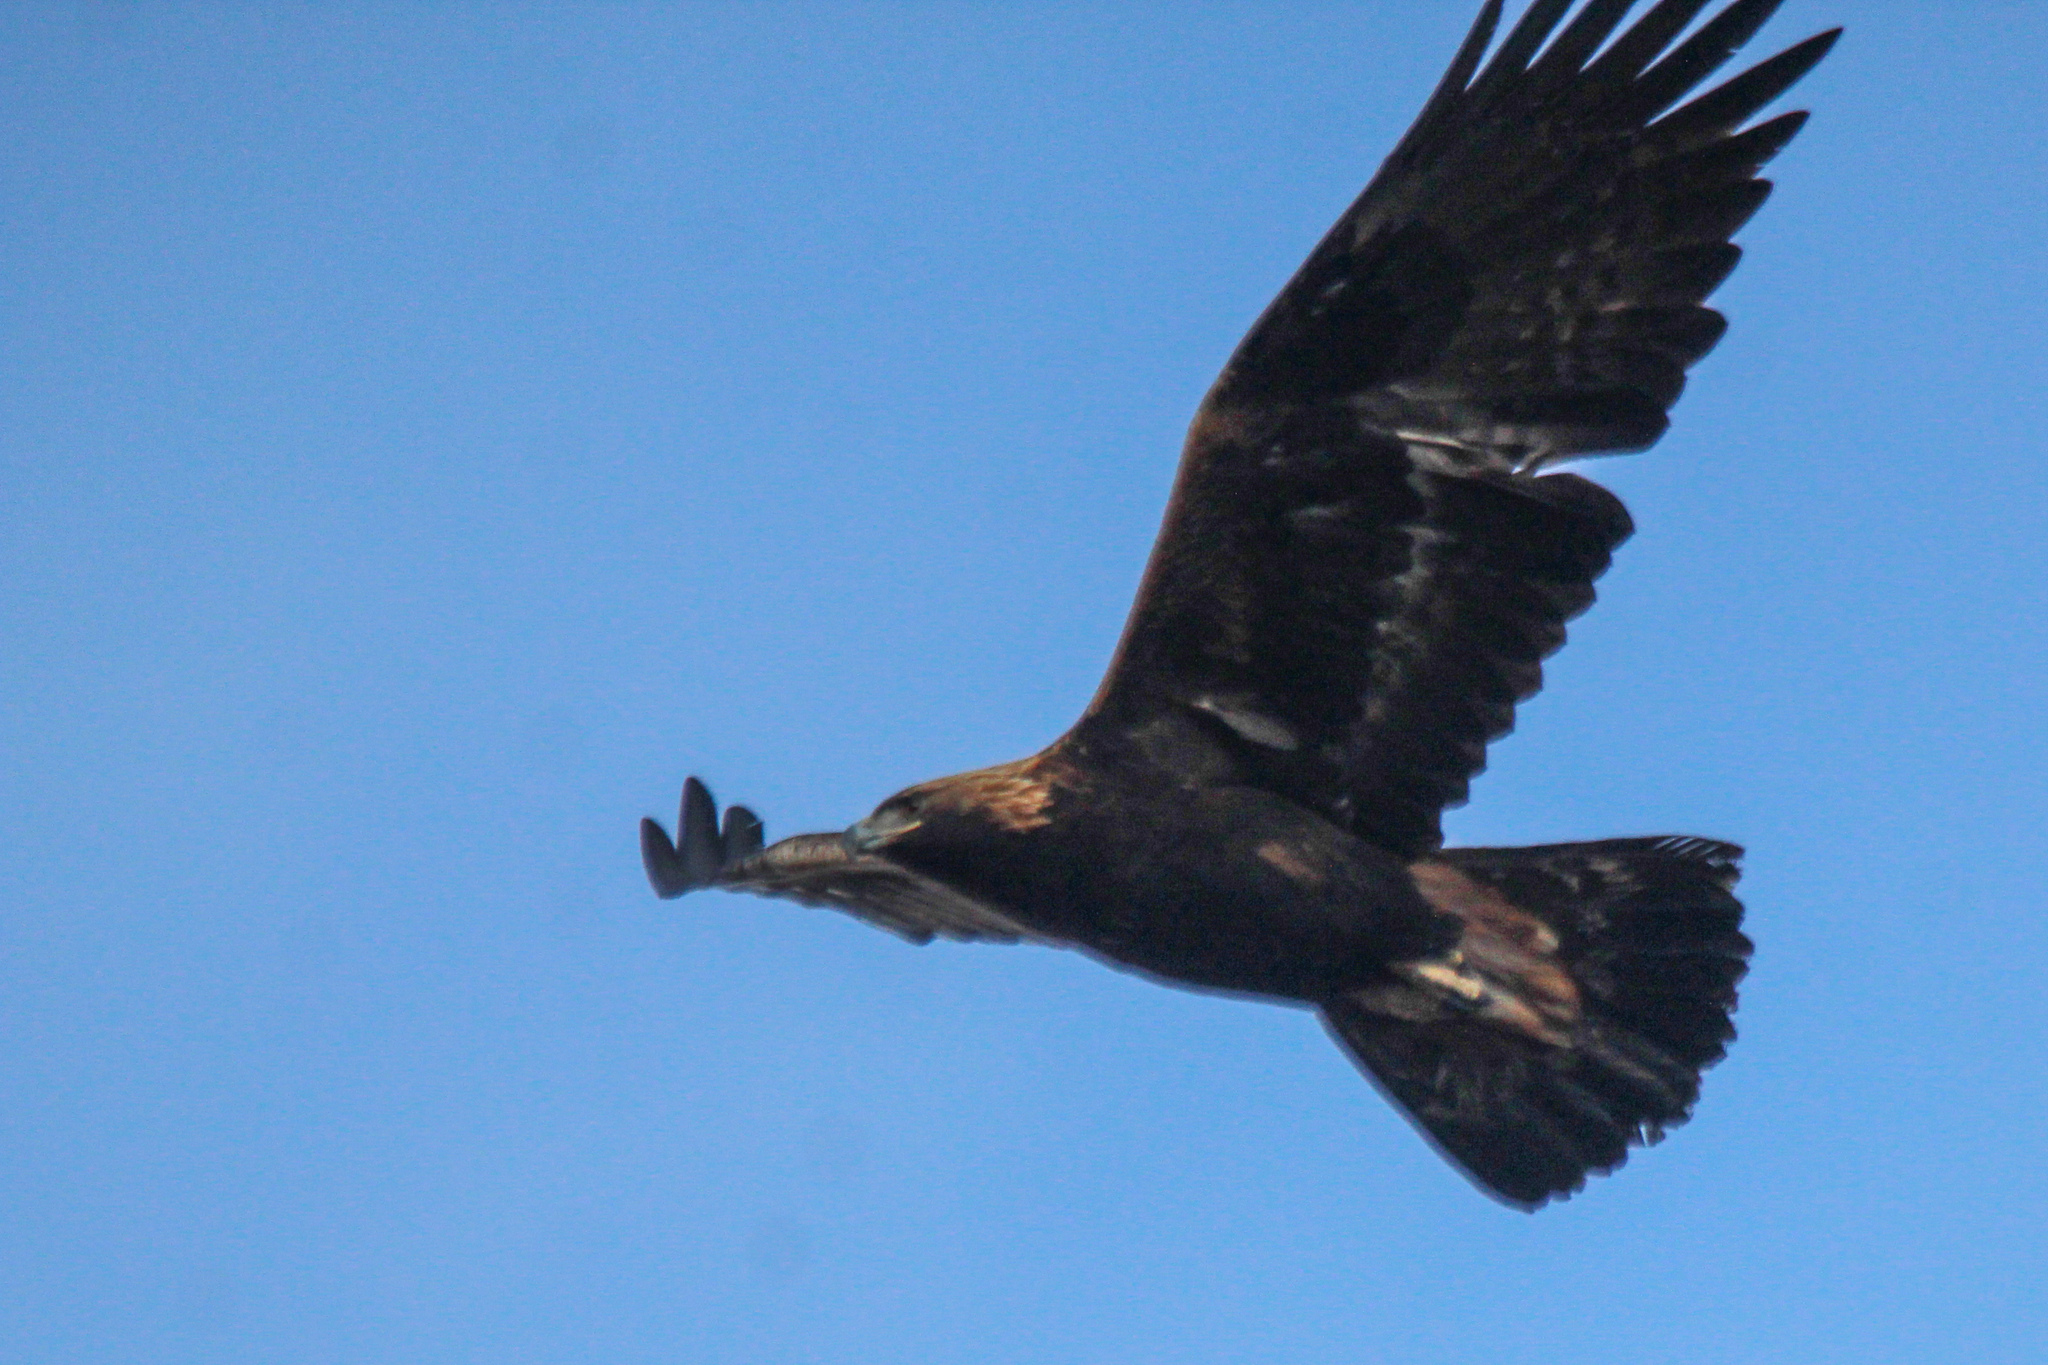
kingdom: Animalia
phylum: Chordata
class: Aves
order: Accipitriformes
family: Accipitridae
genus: Aquila
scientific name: Aquila chrysaetos
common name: Golden eagle
